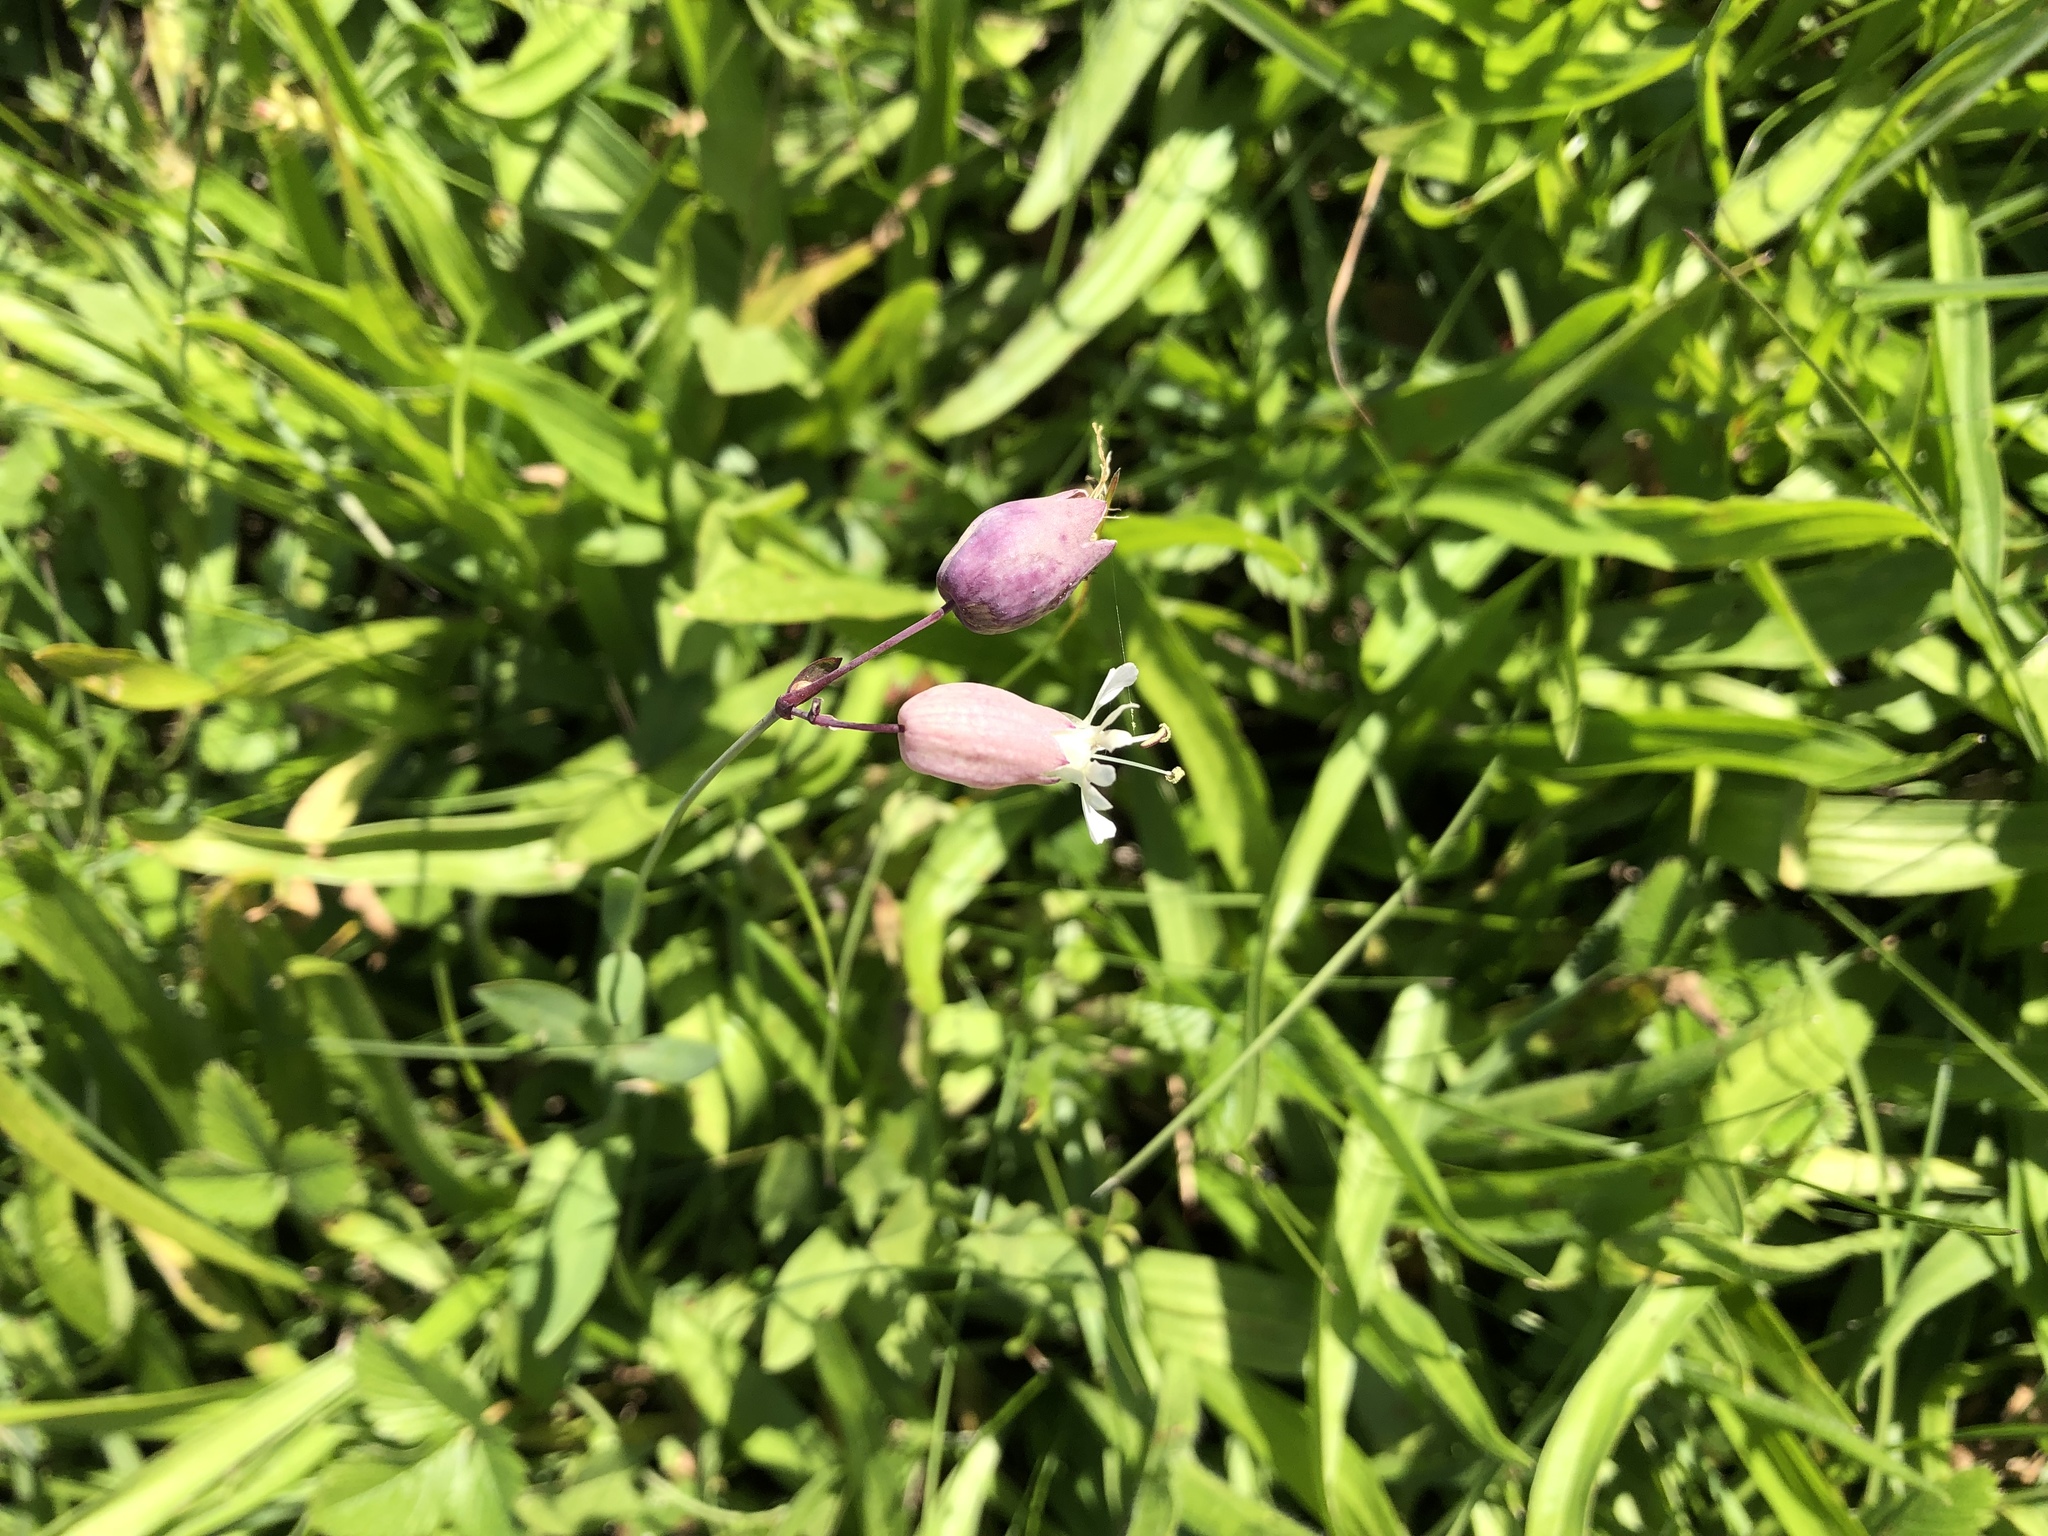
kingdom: Plantae
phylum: Tracheophyta
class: Magnoliopsida
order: Caryophyllales
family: Caryophyllaceae
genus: Silene
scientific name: Silene vulgaris
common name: Bladder campion
